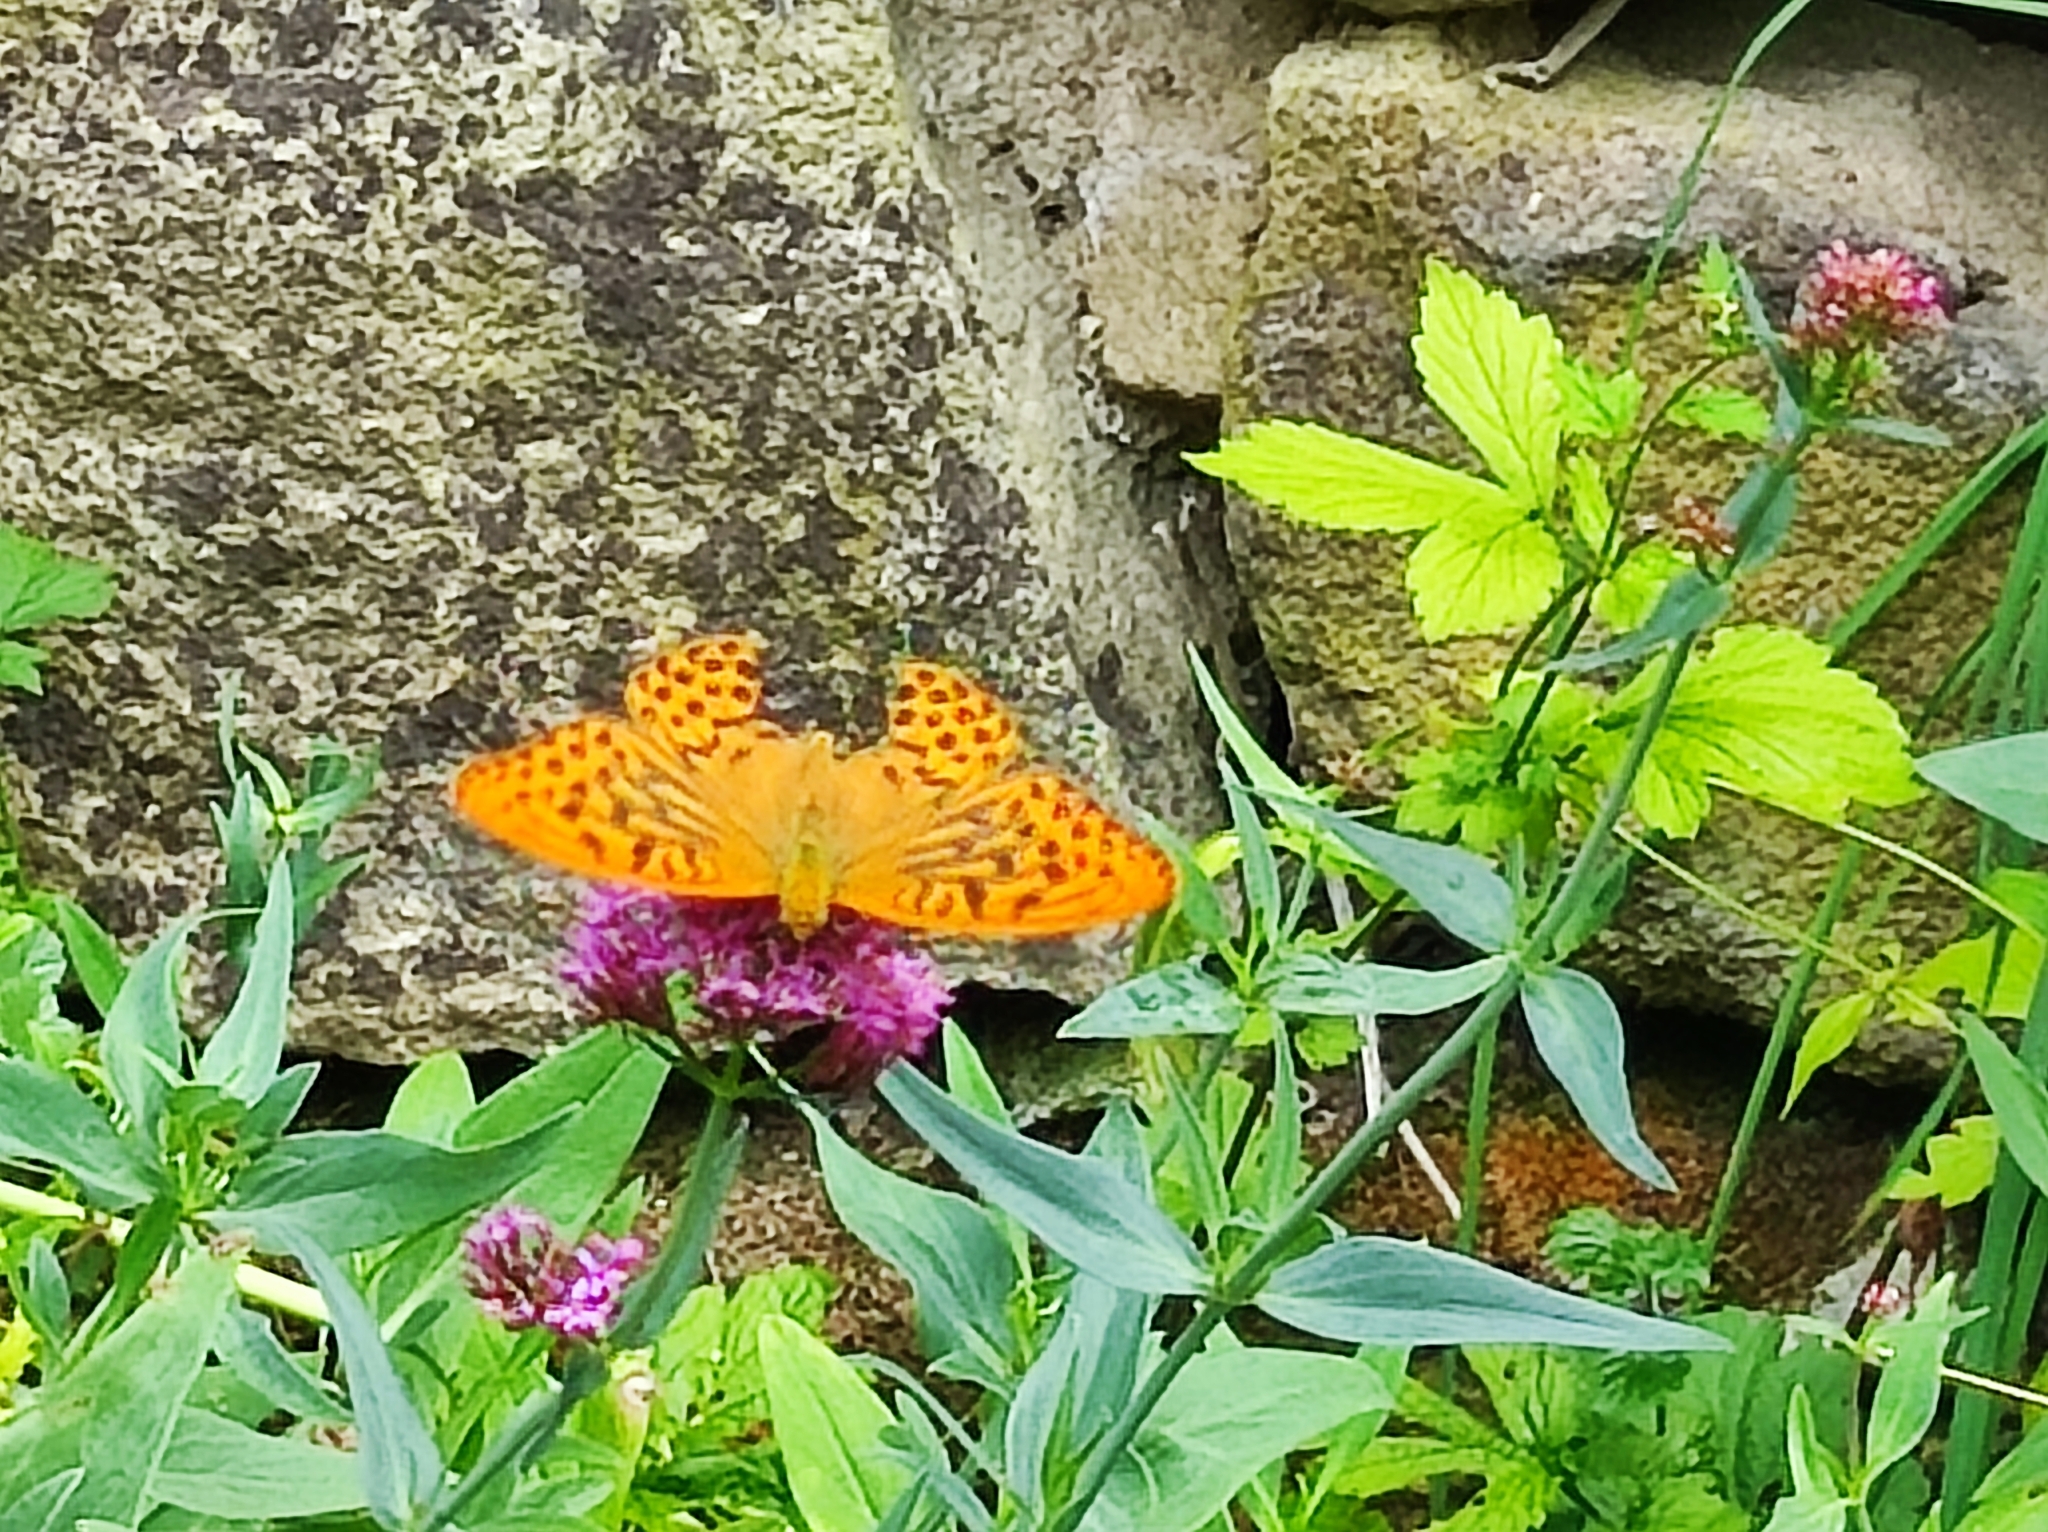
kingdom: Animalia
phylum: Arthropoda
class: Insecta
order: Lepidoptera
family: Nymphalidae
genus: Argynnis
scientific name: Argynnis paphia
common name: Silver-washed fritillary
